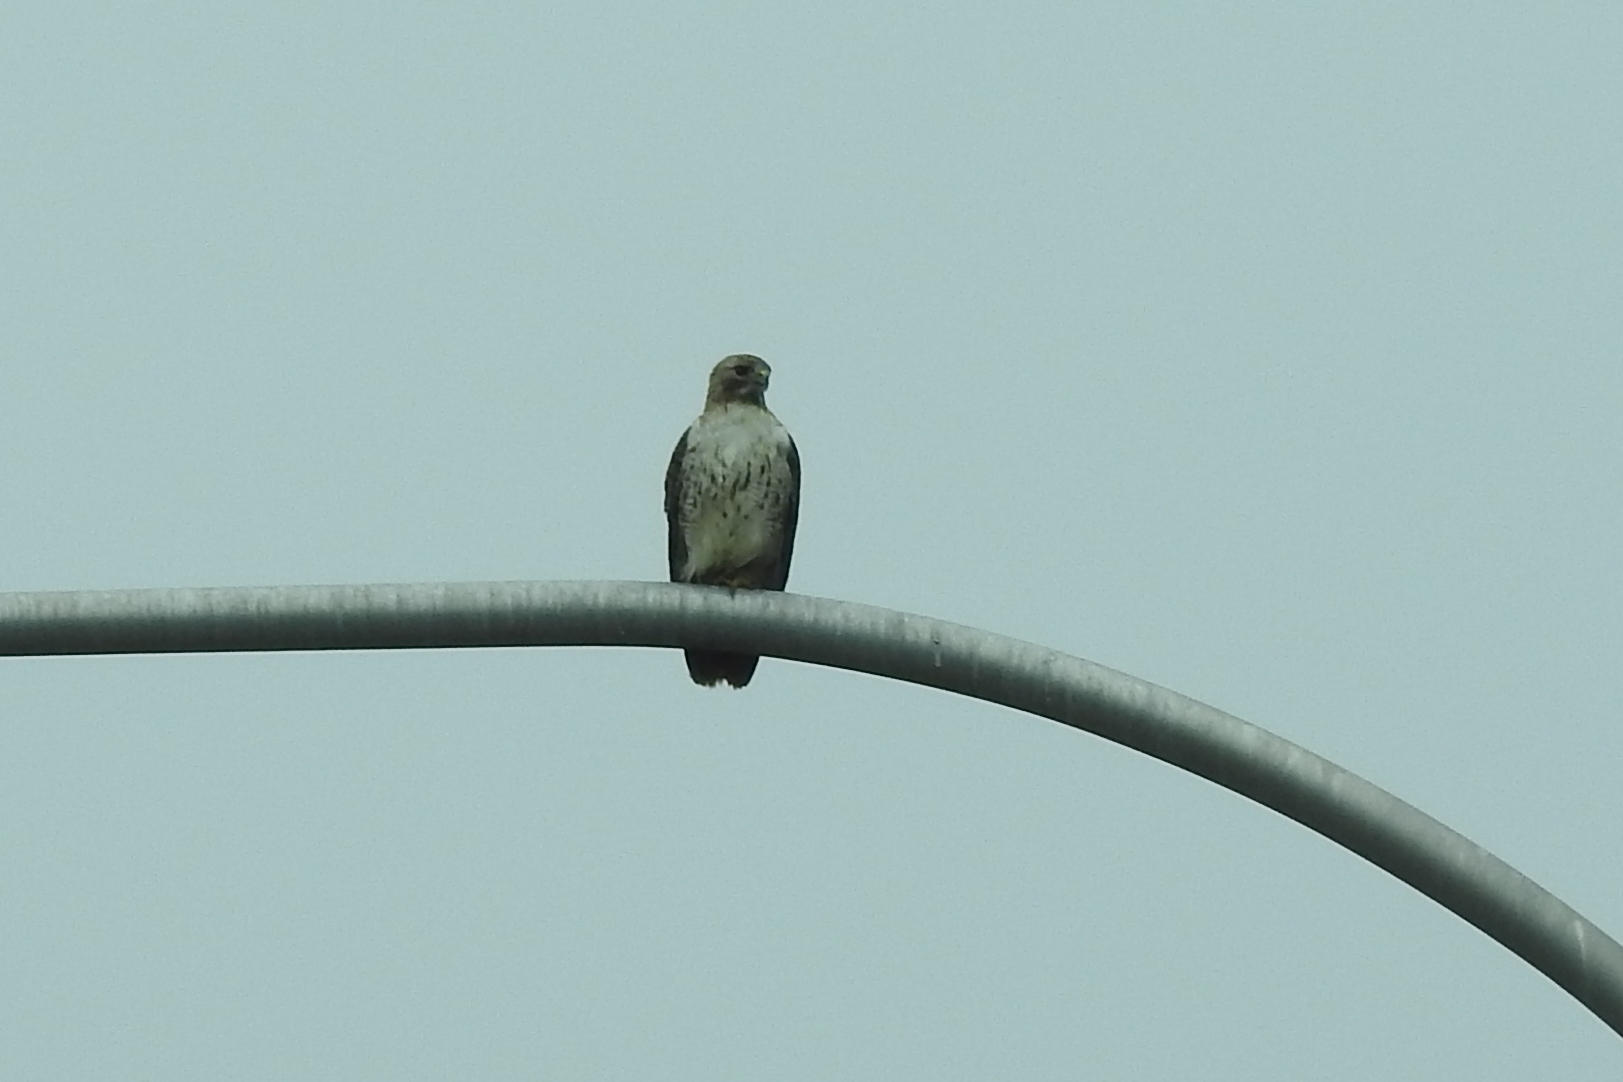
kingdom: Animalia
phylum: Chordata
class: Aves
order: Accipitriformes
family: Accipitridae
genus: Buteo
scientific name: Buteo jamaicensis
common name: Red-tailed hawk
